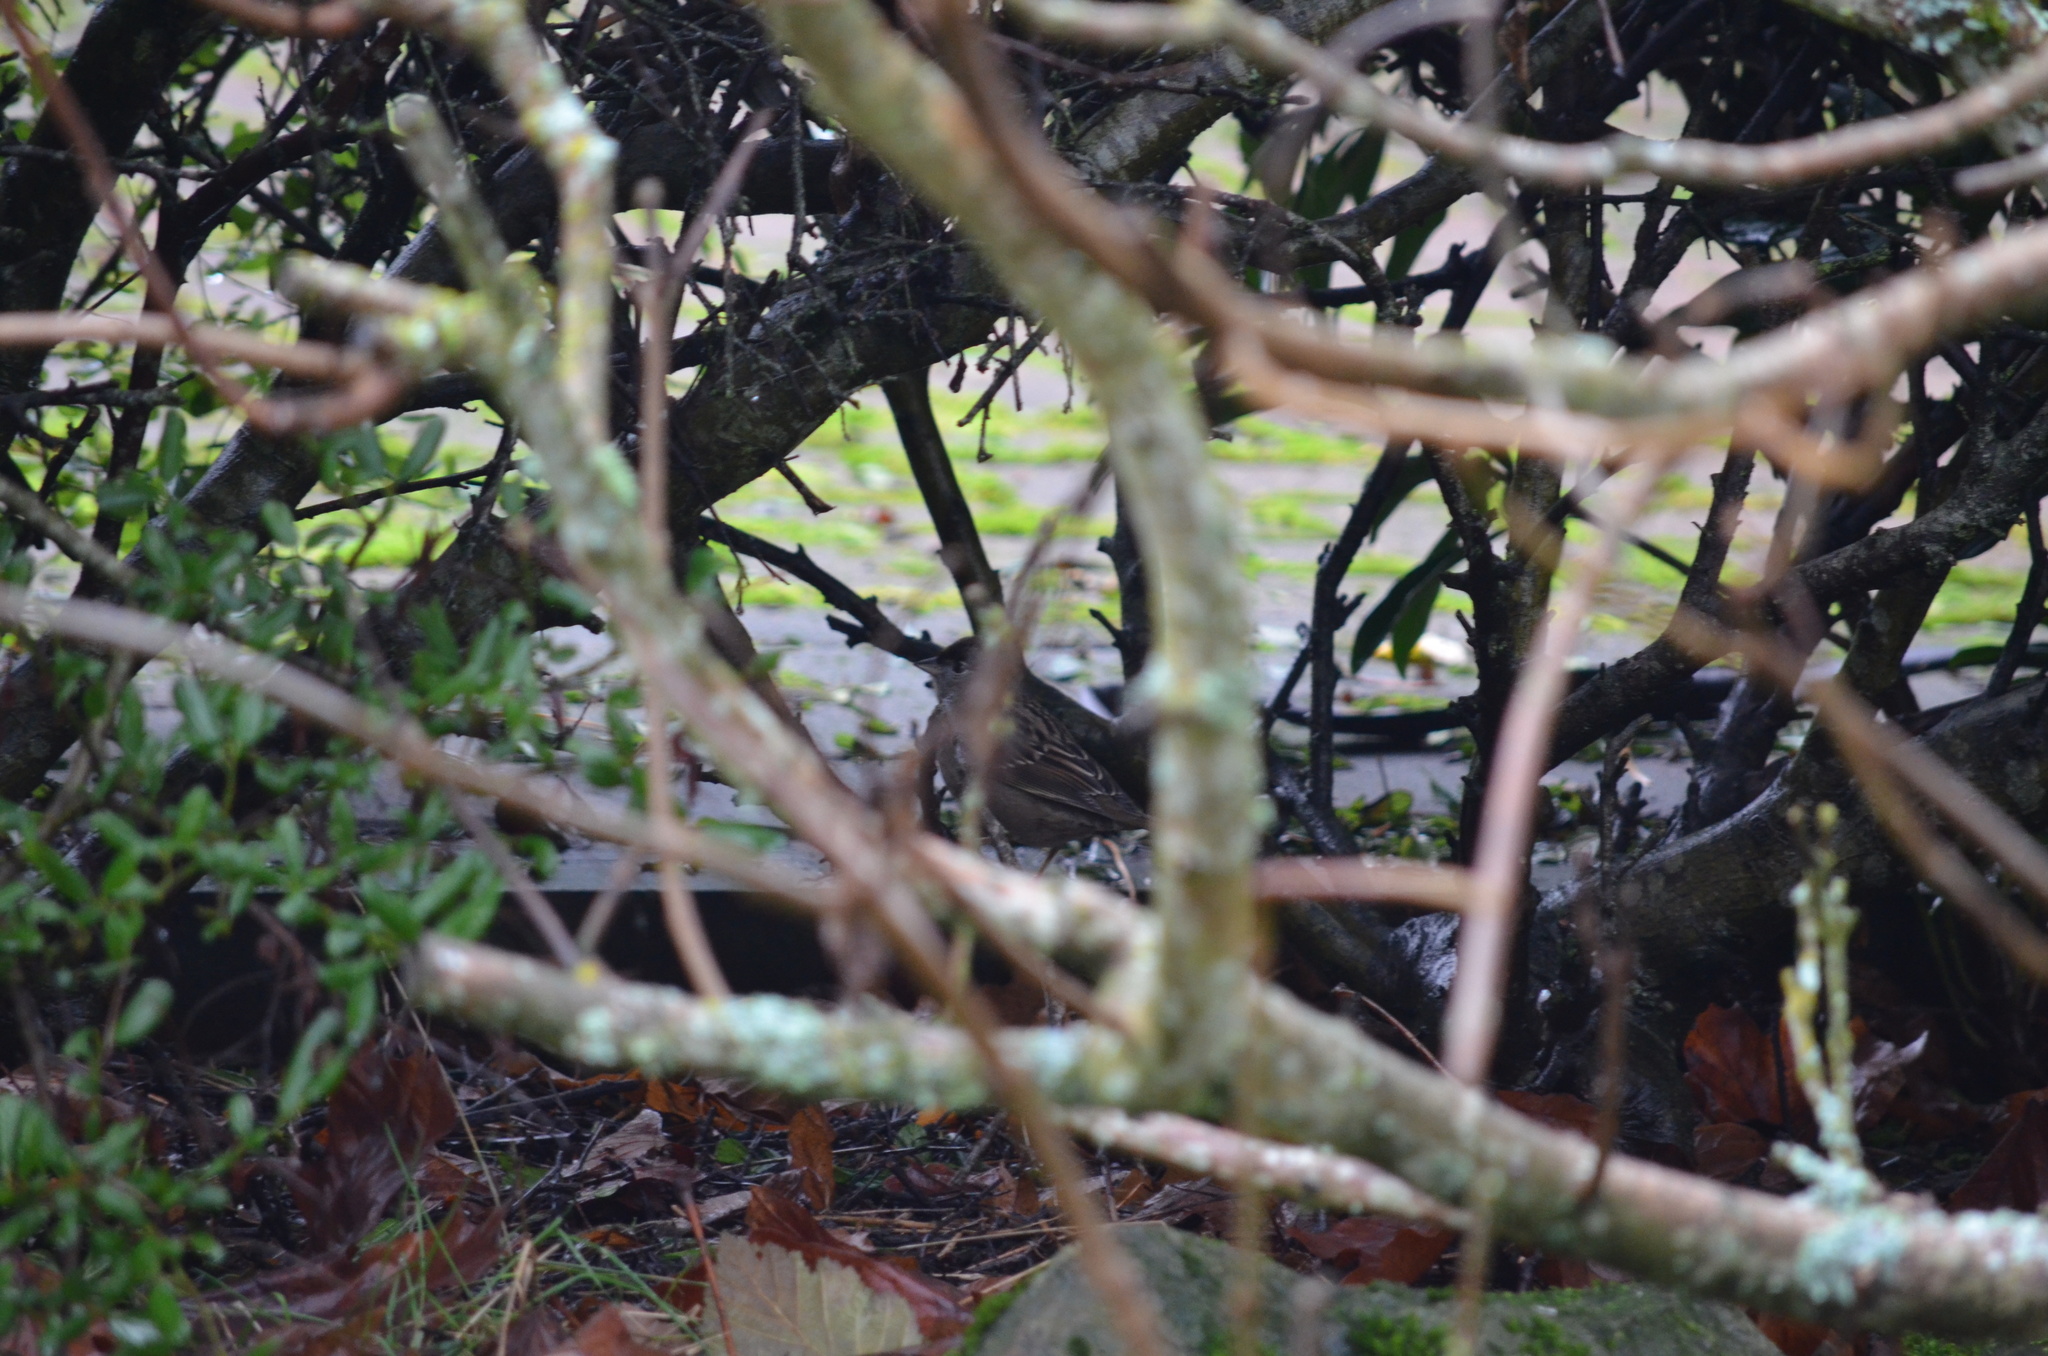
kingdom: Animalia
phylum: Chordata
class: Aves
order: Passeriformes
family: Passerellidae
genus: Zonotrichia
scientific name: Zonotrichia atricapilla
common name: Golden-crowned sparrow
